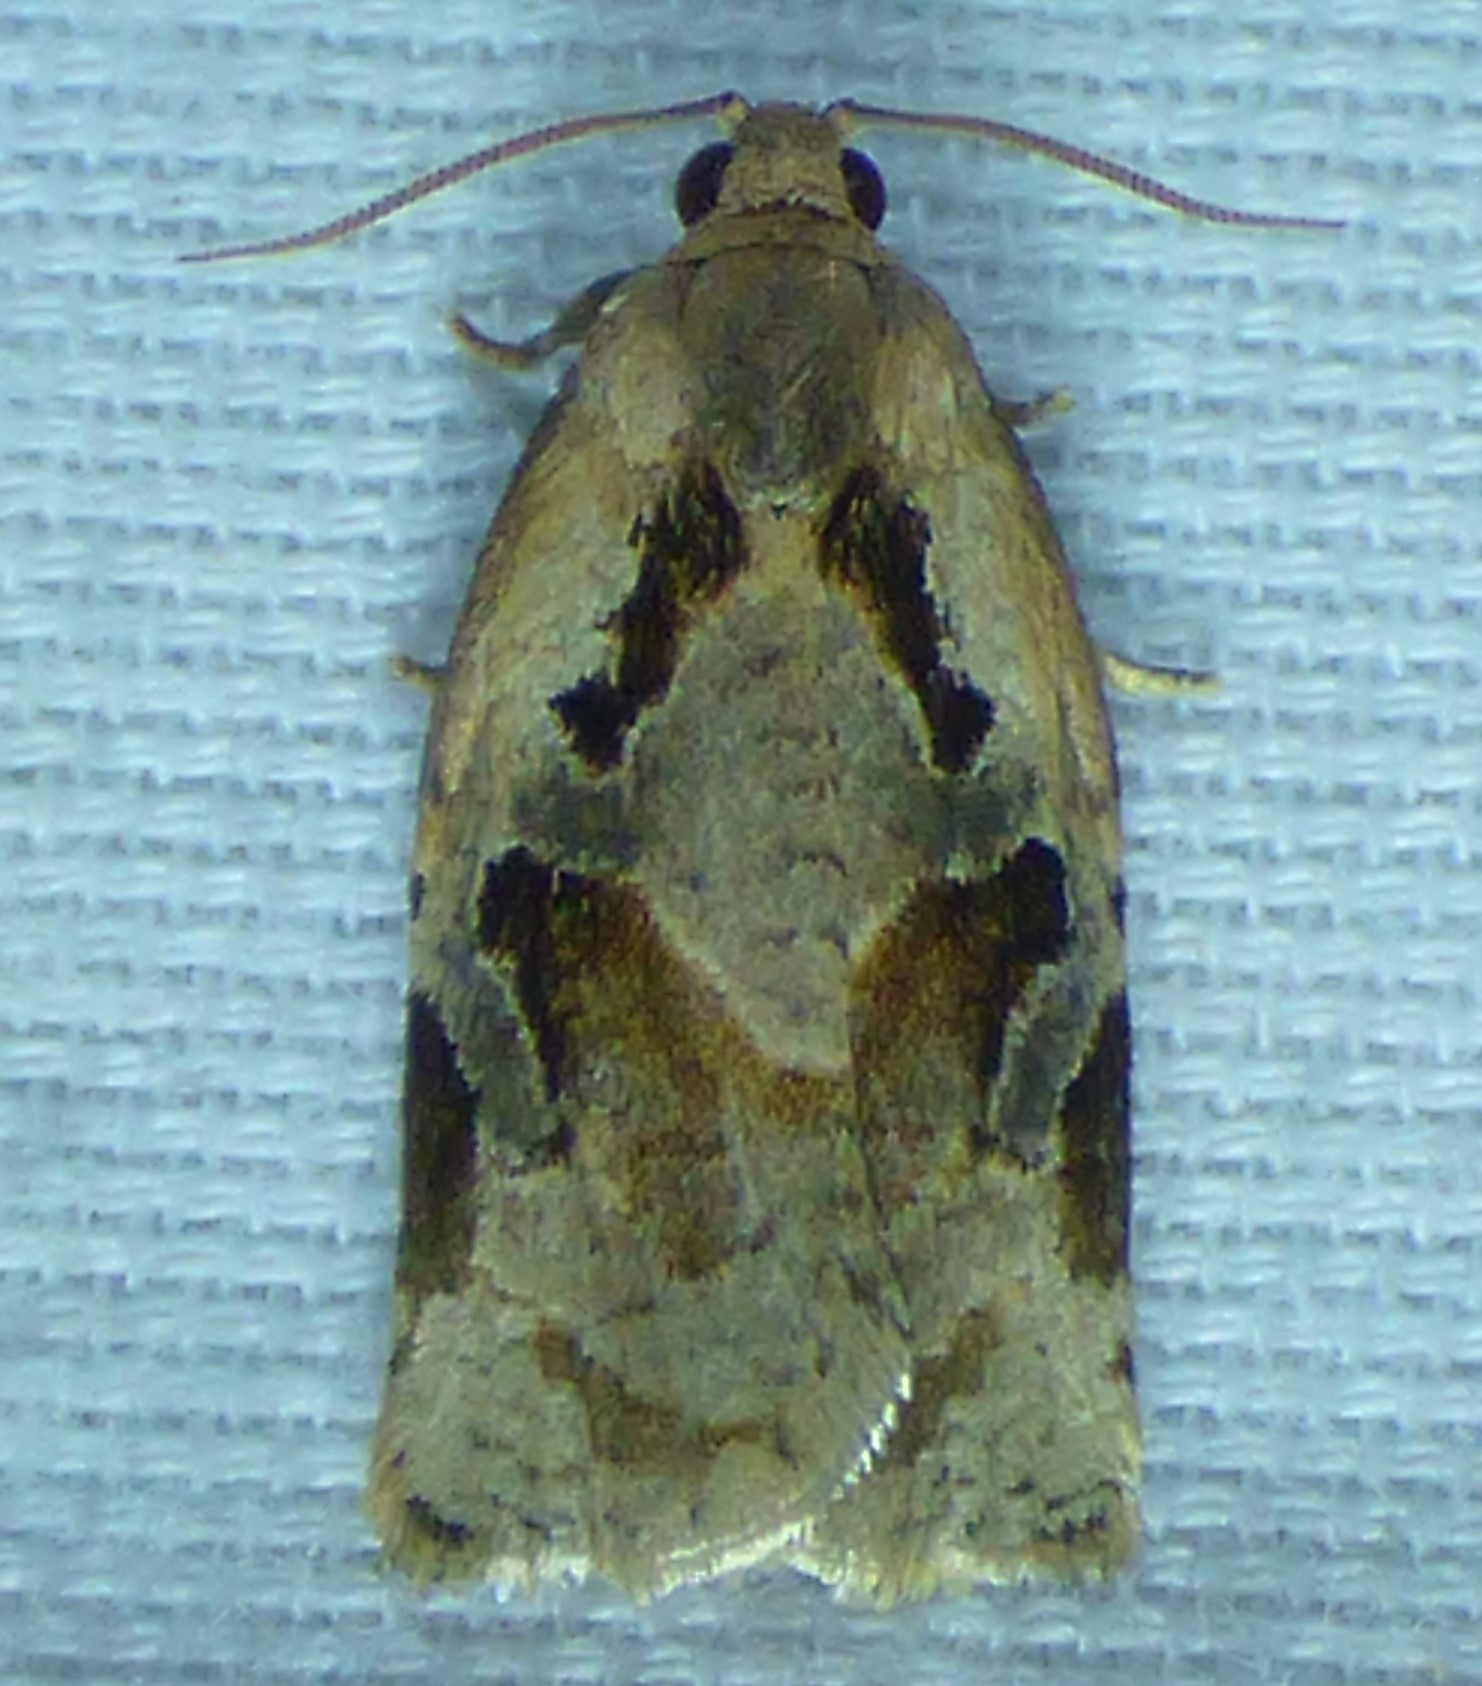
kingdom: Animalia
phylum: Arthropoda
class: Insecta
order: Lepidoptera
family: Tortricidae
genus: Archips
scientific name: Archips grisea
